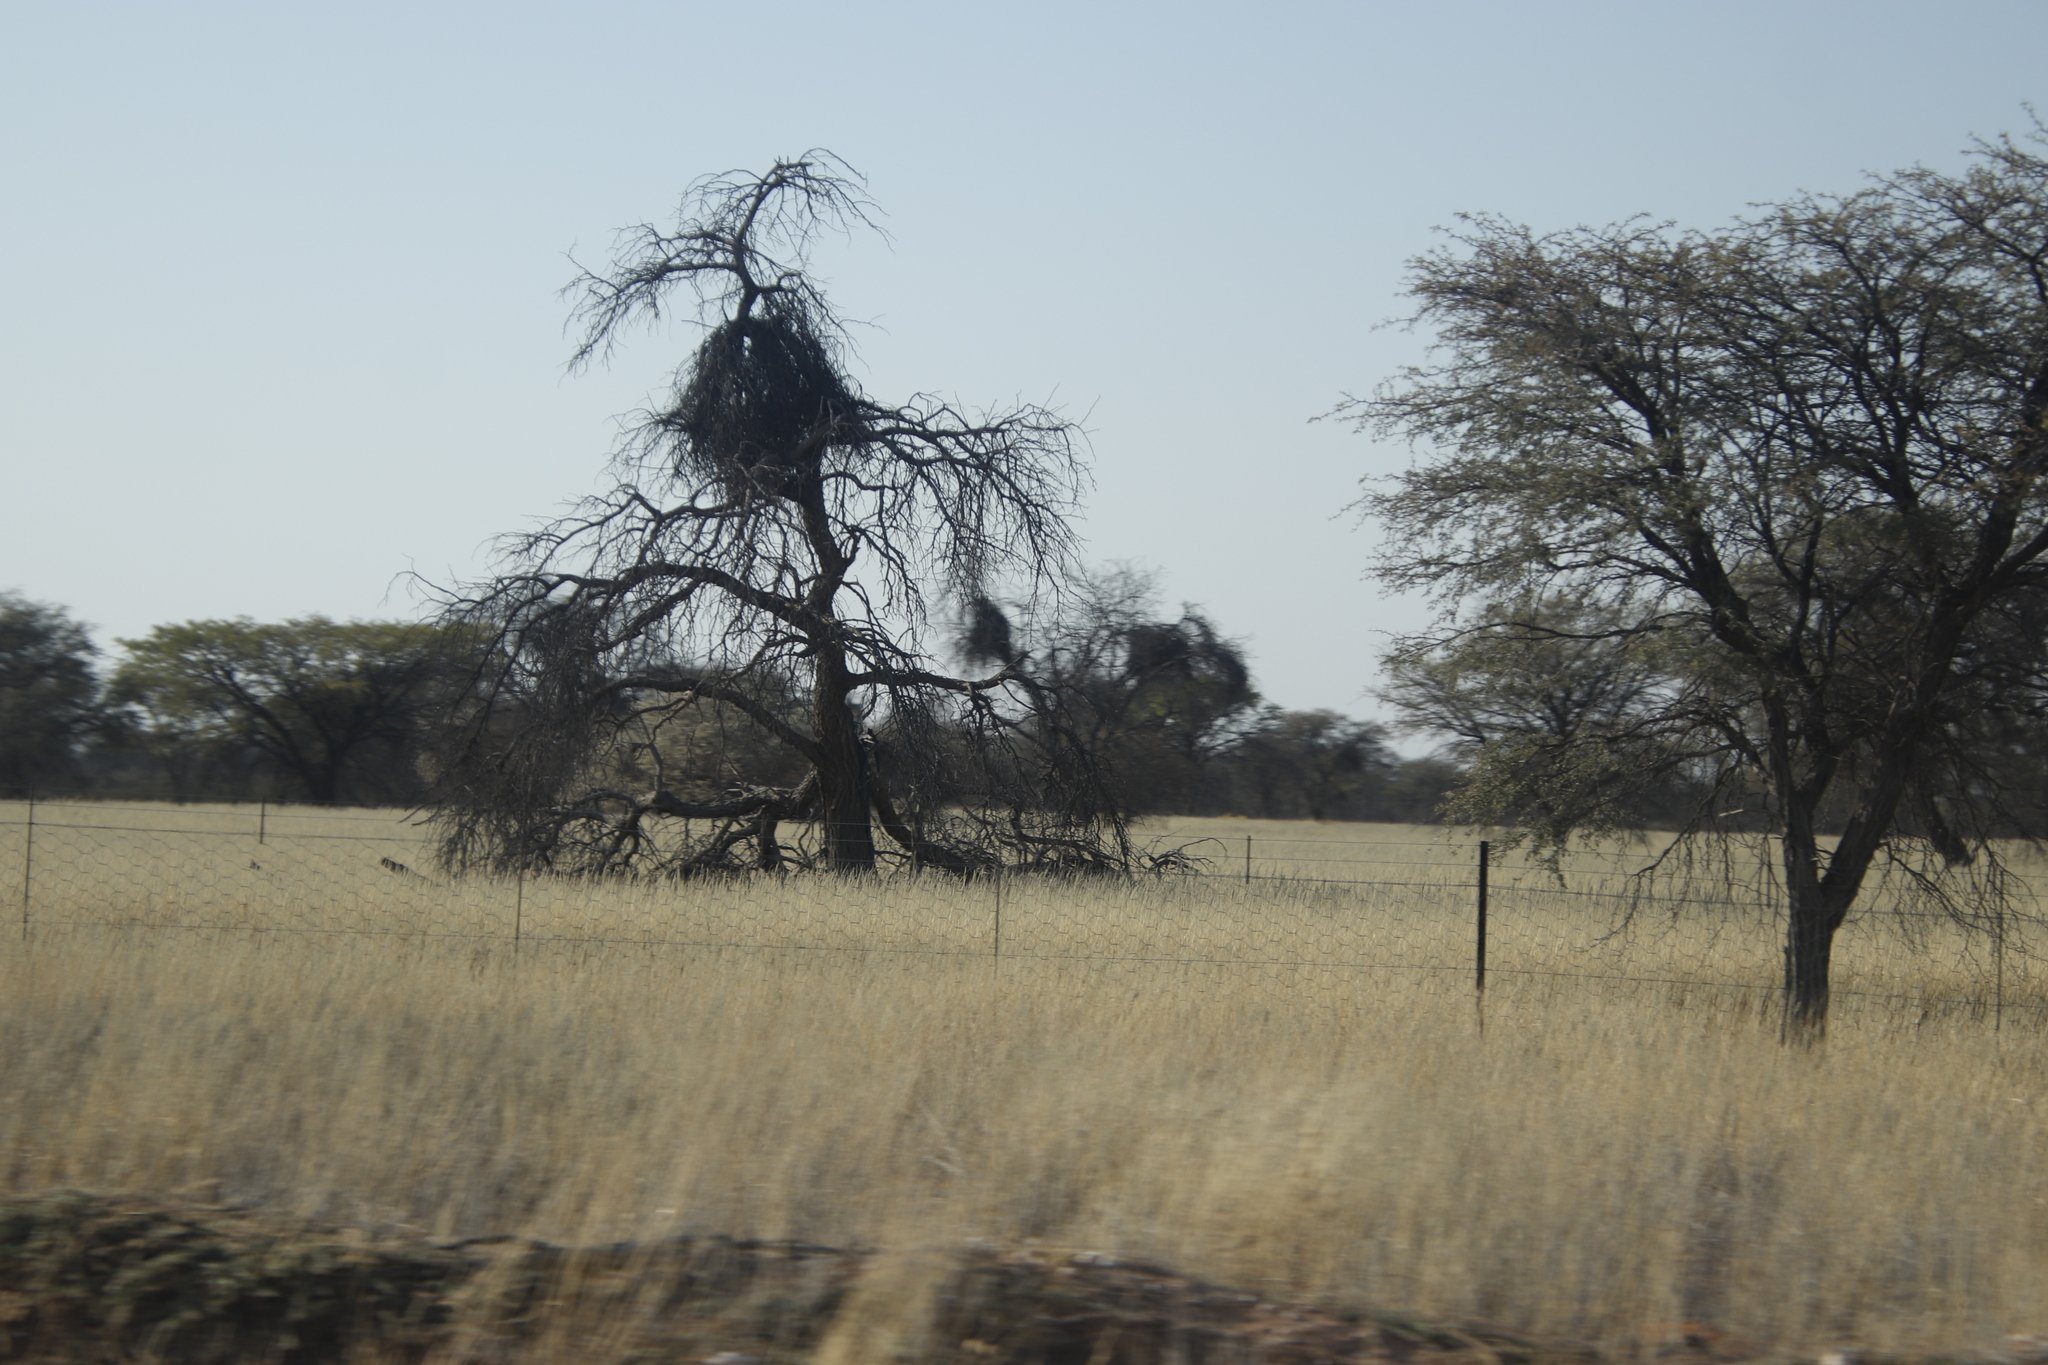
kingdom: Animalia
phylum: Chordata
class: Aves
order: Passeriformes
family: Passeridae
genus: Philetairus
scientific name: Philetairus socius
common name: Sociable weaver
